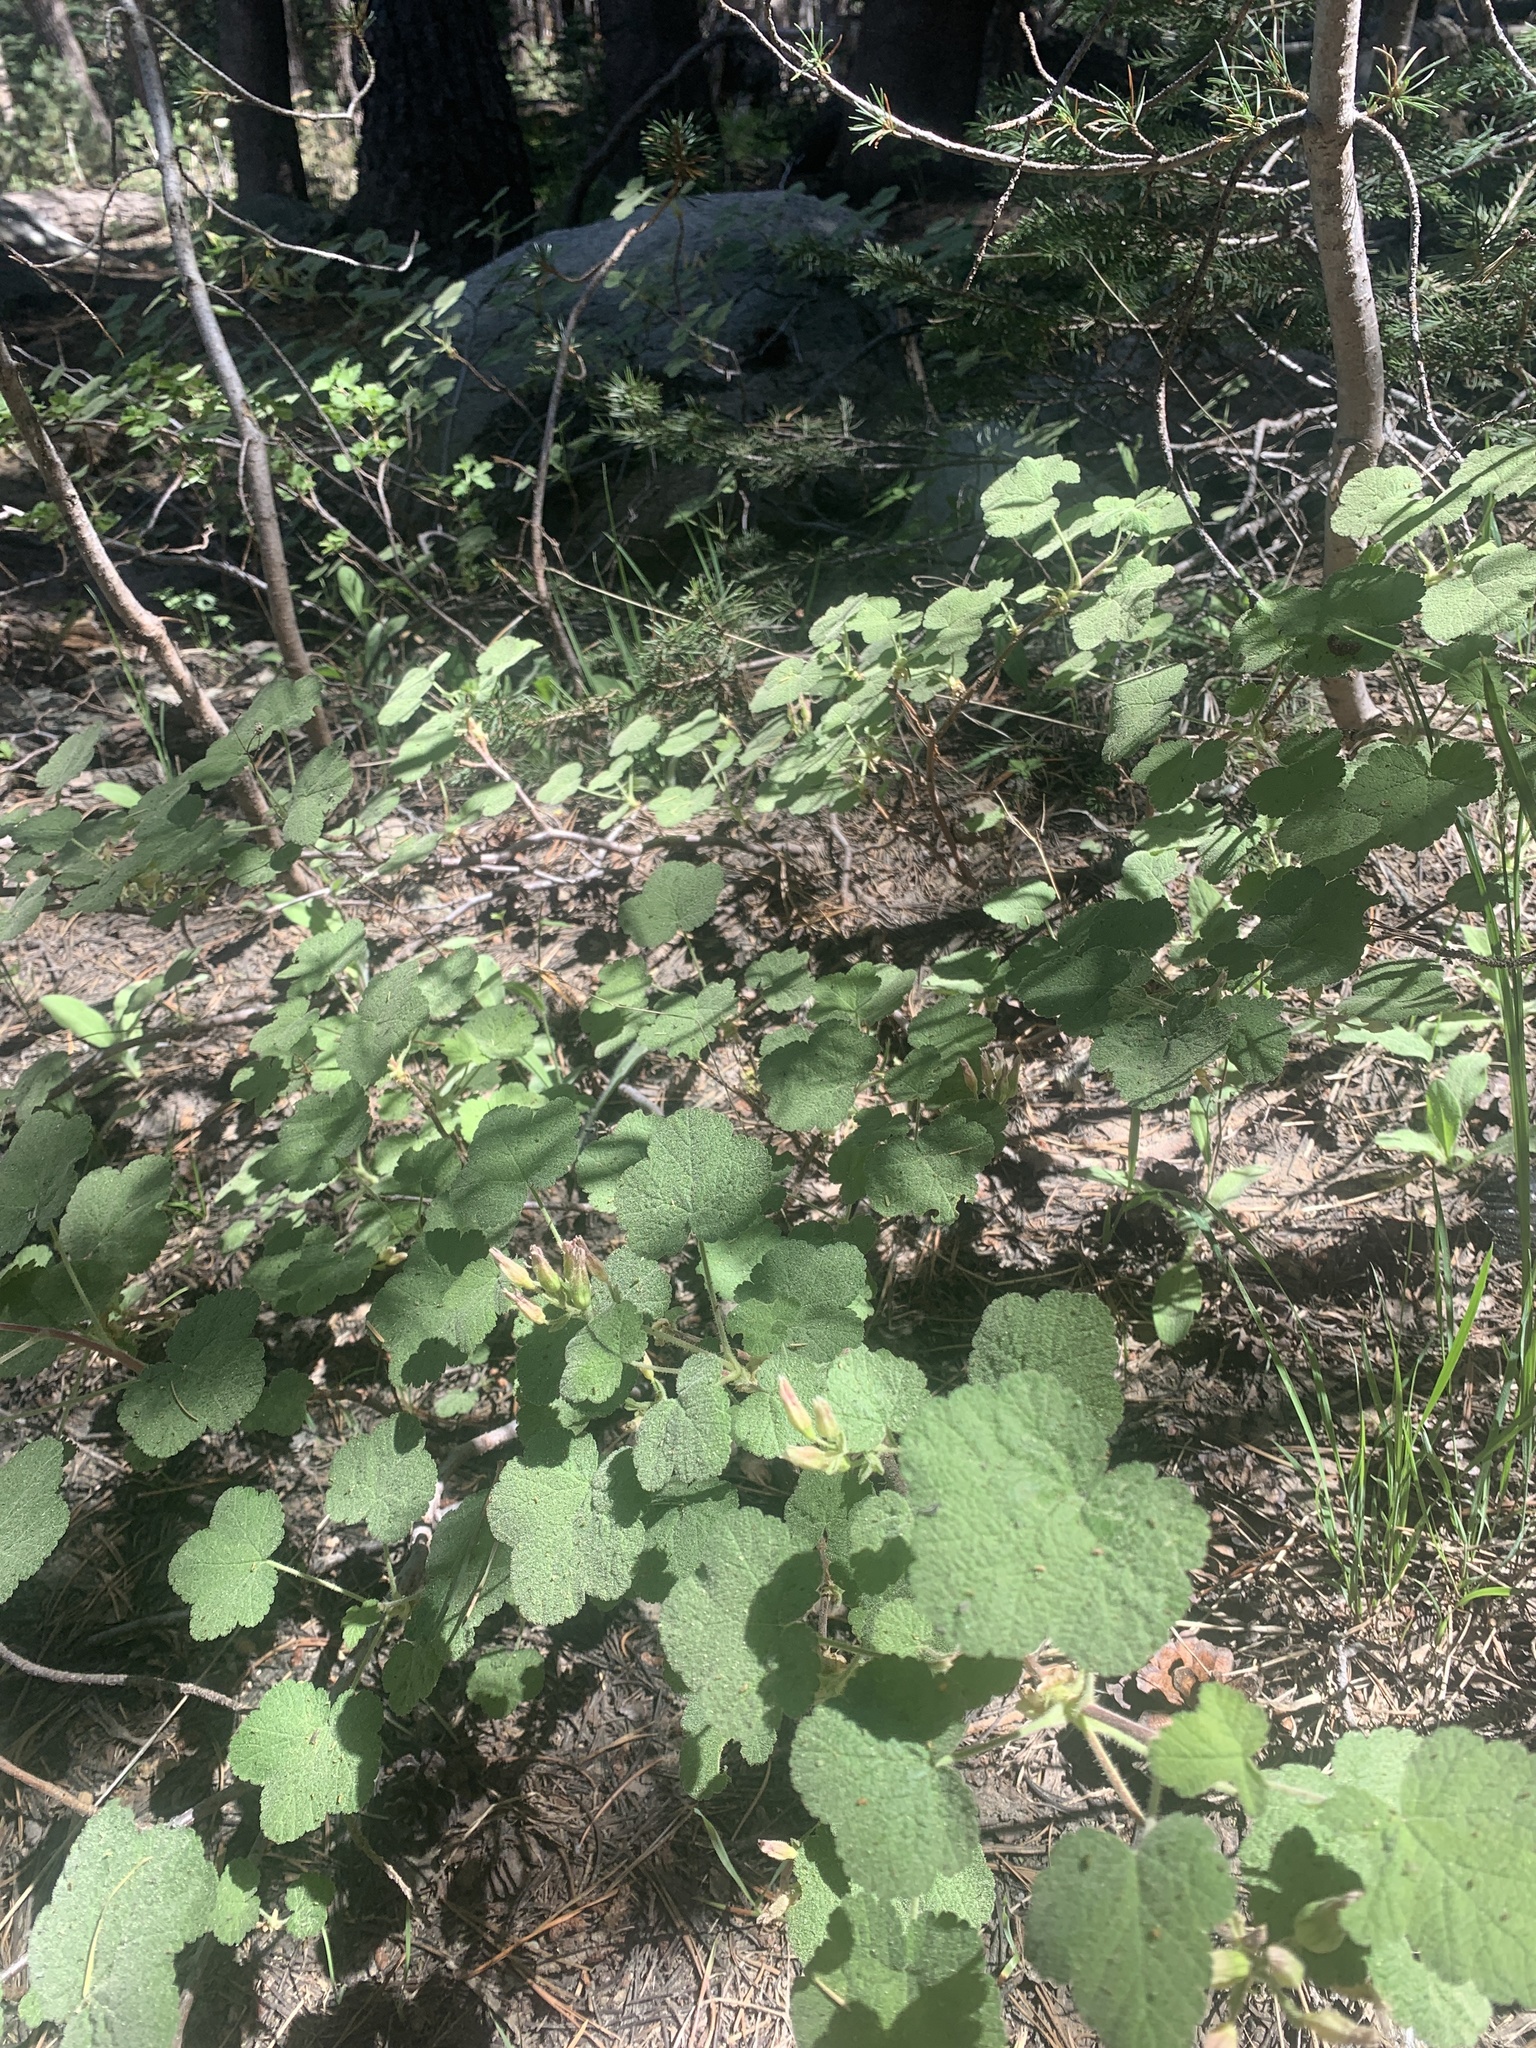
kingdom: Plantae
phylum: Tracheophyta
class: Magnoliopsida
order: Saxifragales
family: Grossulariaceae
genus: Ribes
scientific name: Ribes viscosissimum
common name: Sticky currant
